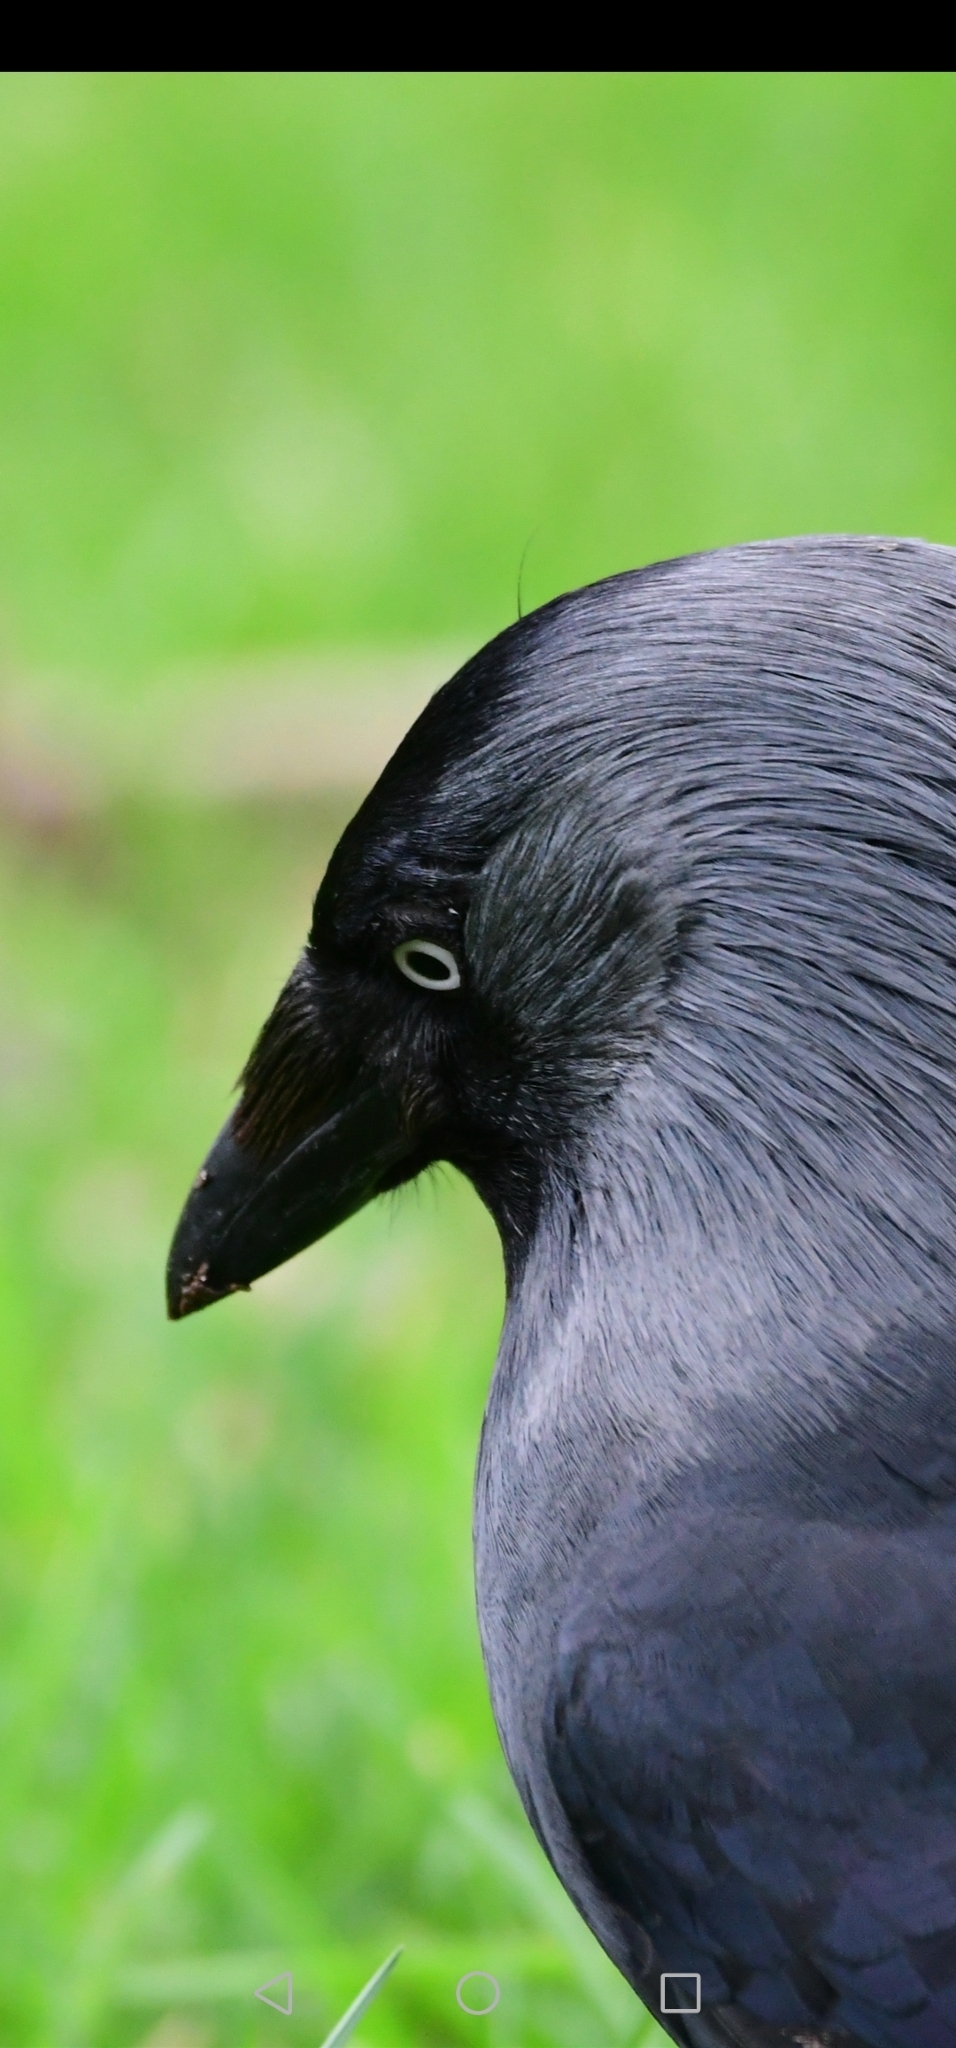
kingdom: Animalia
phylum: Chordata
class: Aves
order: Passeriformes
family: Corvidae
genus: Coloeus
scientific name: Coloeus monedula
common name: Western jackdaw
